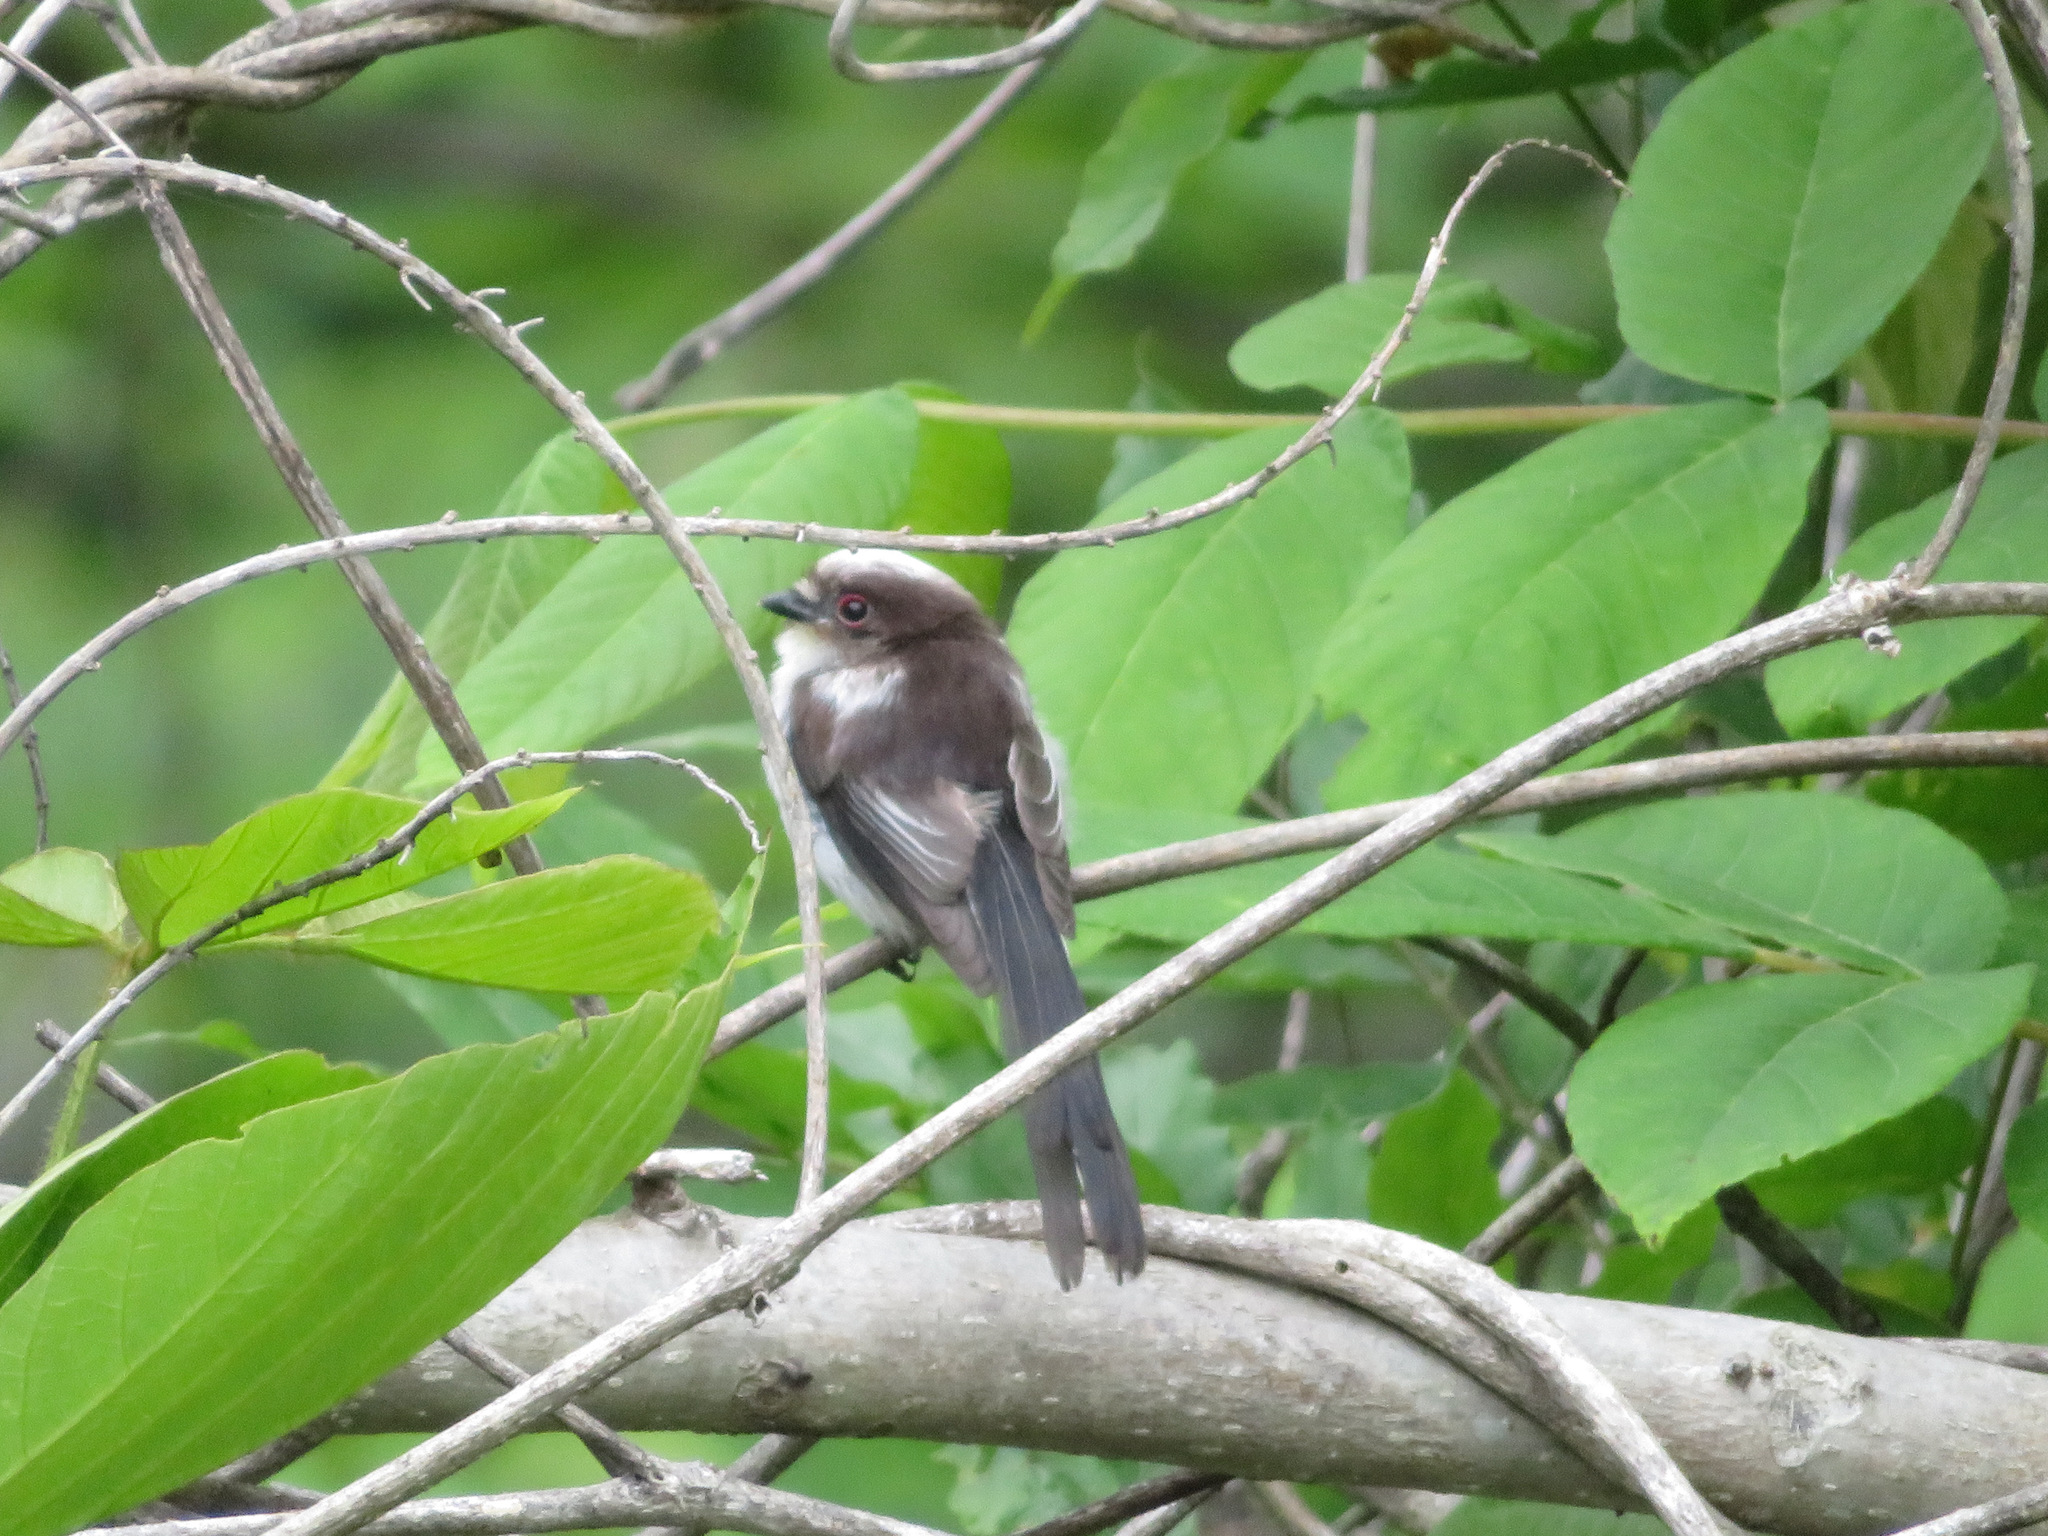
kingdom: Animalia
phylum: Chordata
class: Aves
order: Passeriformes
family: Aegithalidae
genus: Aegithalos
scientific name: Aegithalos caudatus
